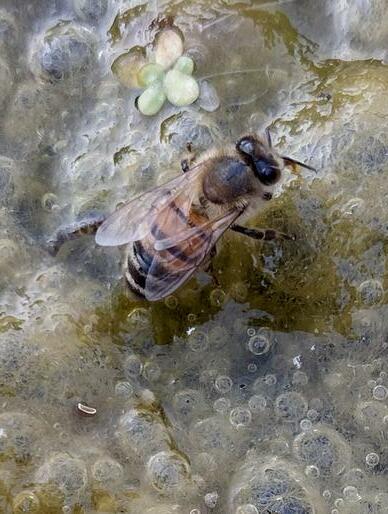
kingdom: Animalia
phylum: Arthropoda
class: Insecta
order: Hymenoptera
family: Apidae
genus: Apis
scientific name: Apis mellifera
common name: Honey bee
